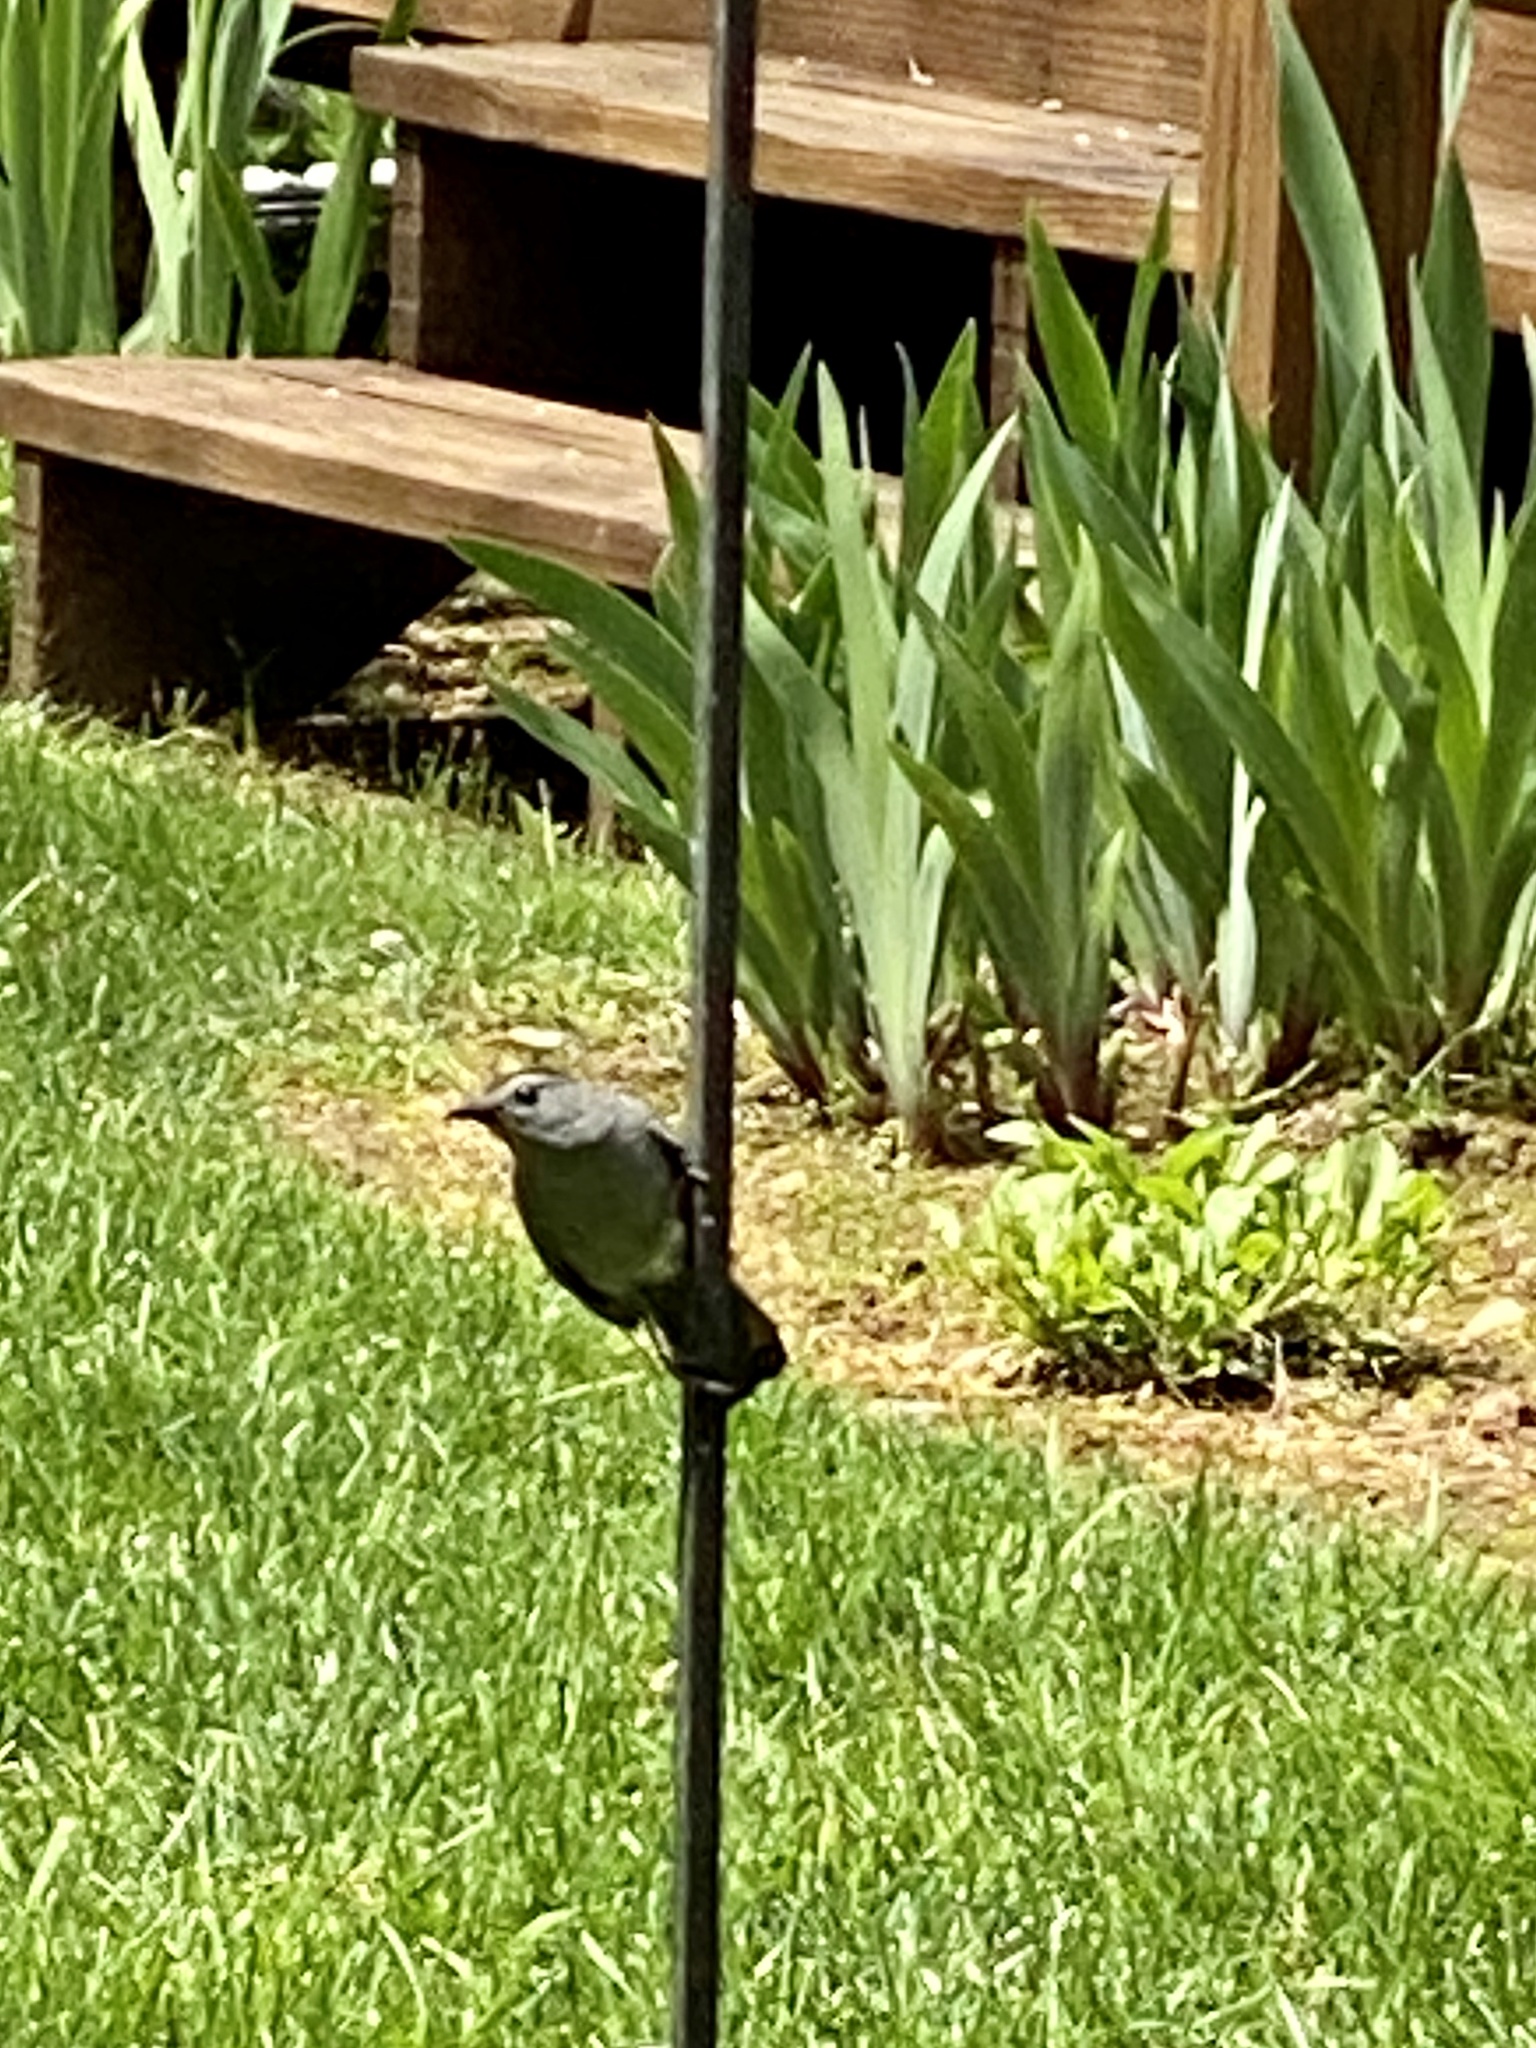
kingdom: Animalia
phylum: Chordata
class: Aves
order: Passeriformes
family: Mimidae
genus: Dumetella
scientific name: Dumetella carolinensis
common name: Gray catbird
